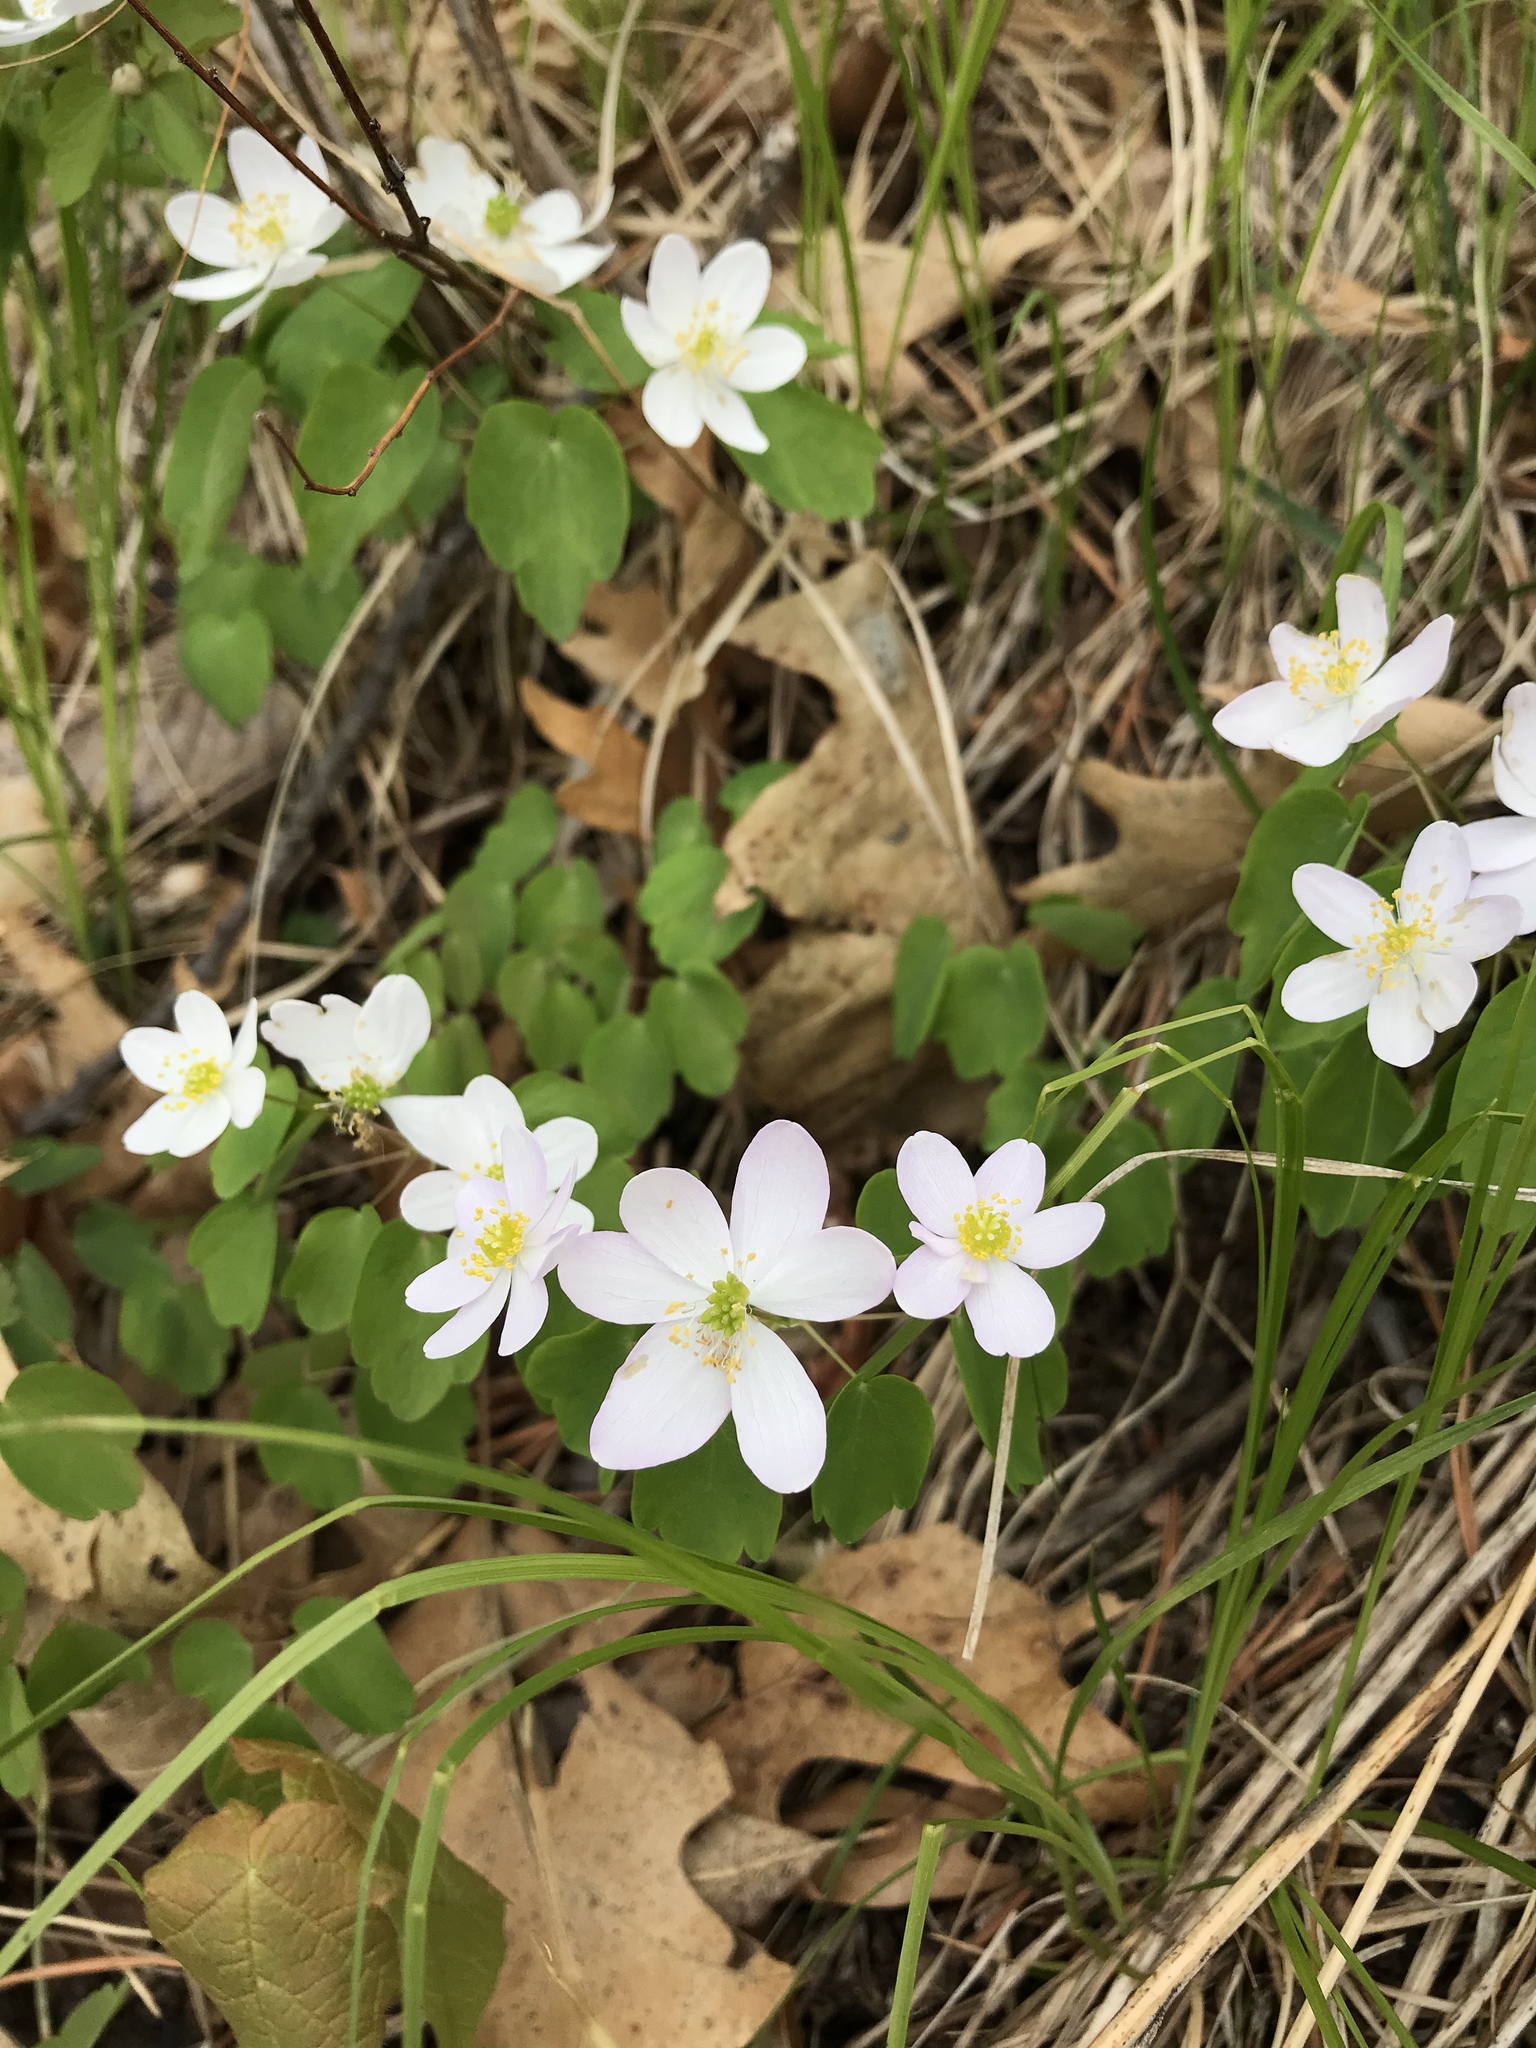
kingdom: Plantae
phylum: Tracheophyta
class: Magnoliopsida
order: Ranunculales
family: Ranunculaceae
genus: Thalictrum
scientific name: Thalictrum thalictroides
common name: Rue-anemone
